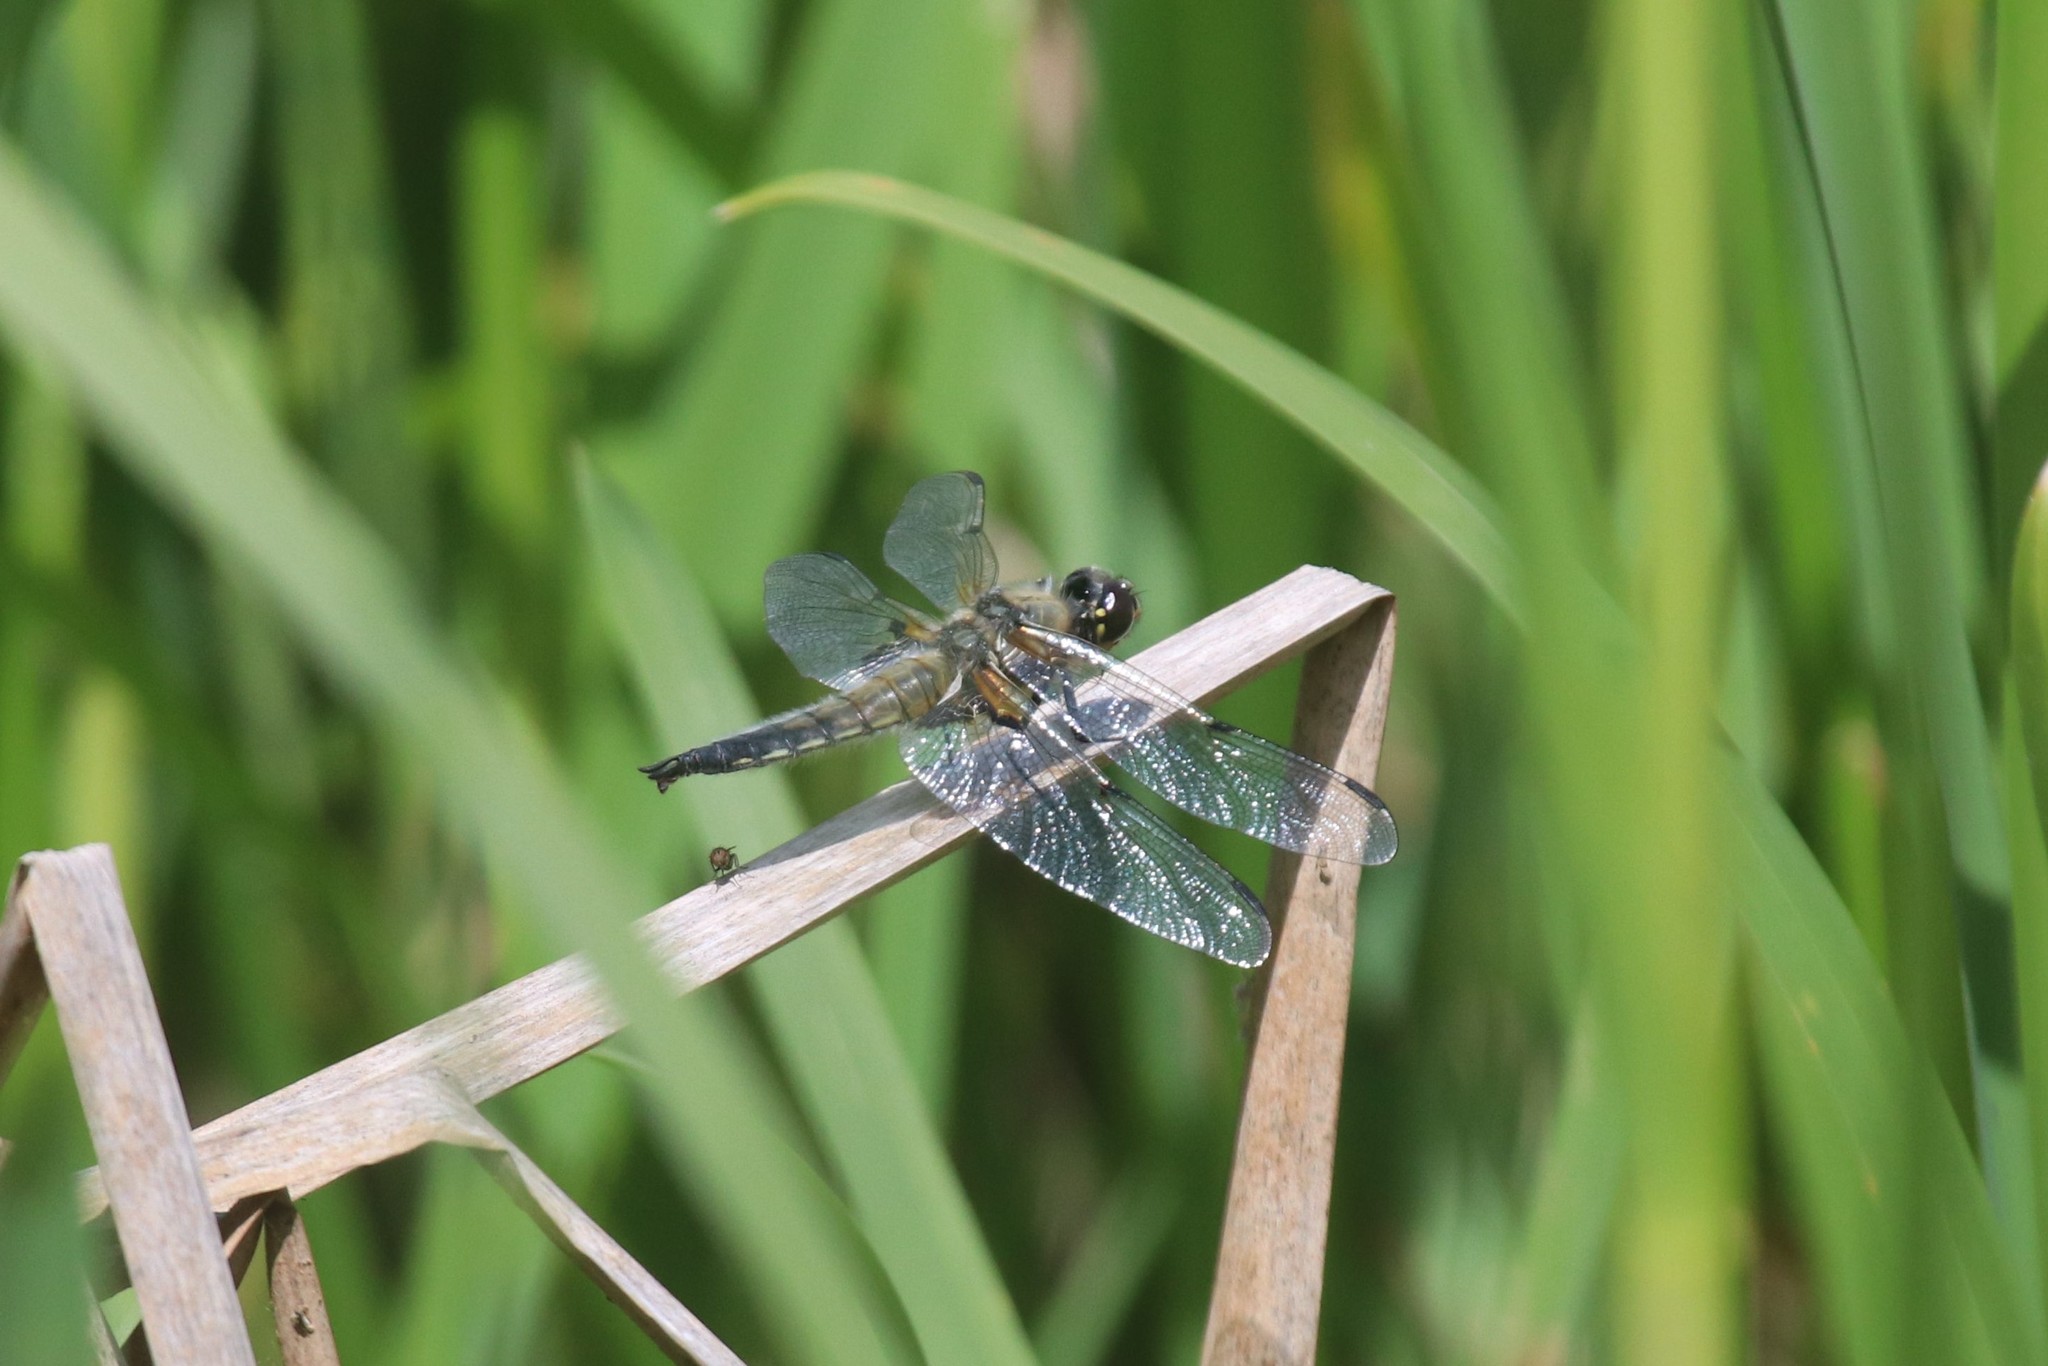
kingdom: Animalia
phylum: Arthropoda
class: Insecta
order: Odonata
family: Libellulidae
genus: Libellula
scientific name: Libellula quadrimaculata
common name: Four-spotted chaser
